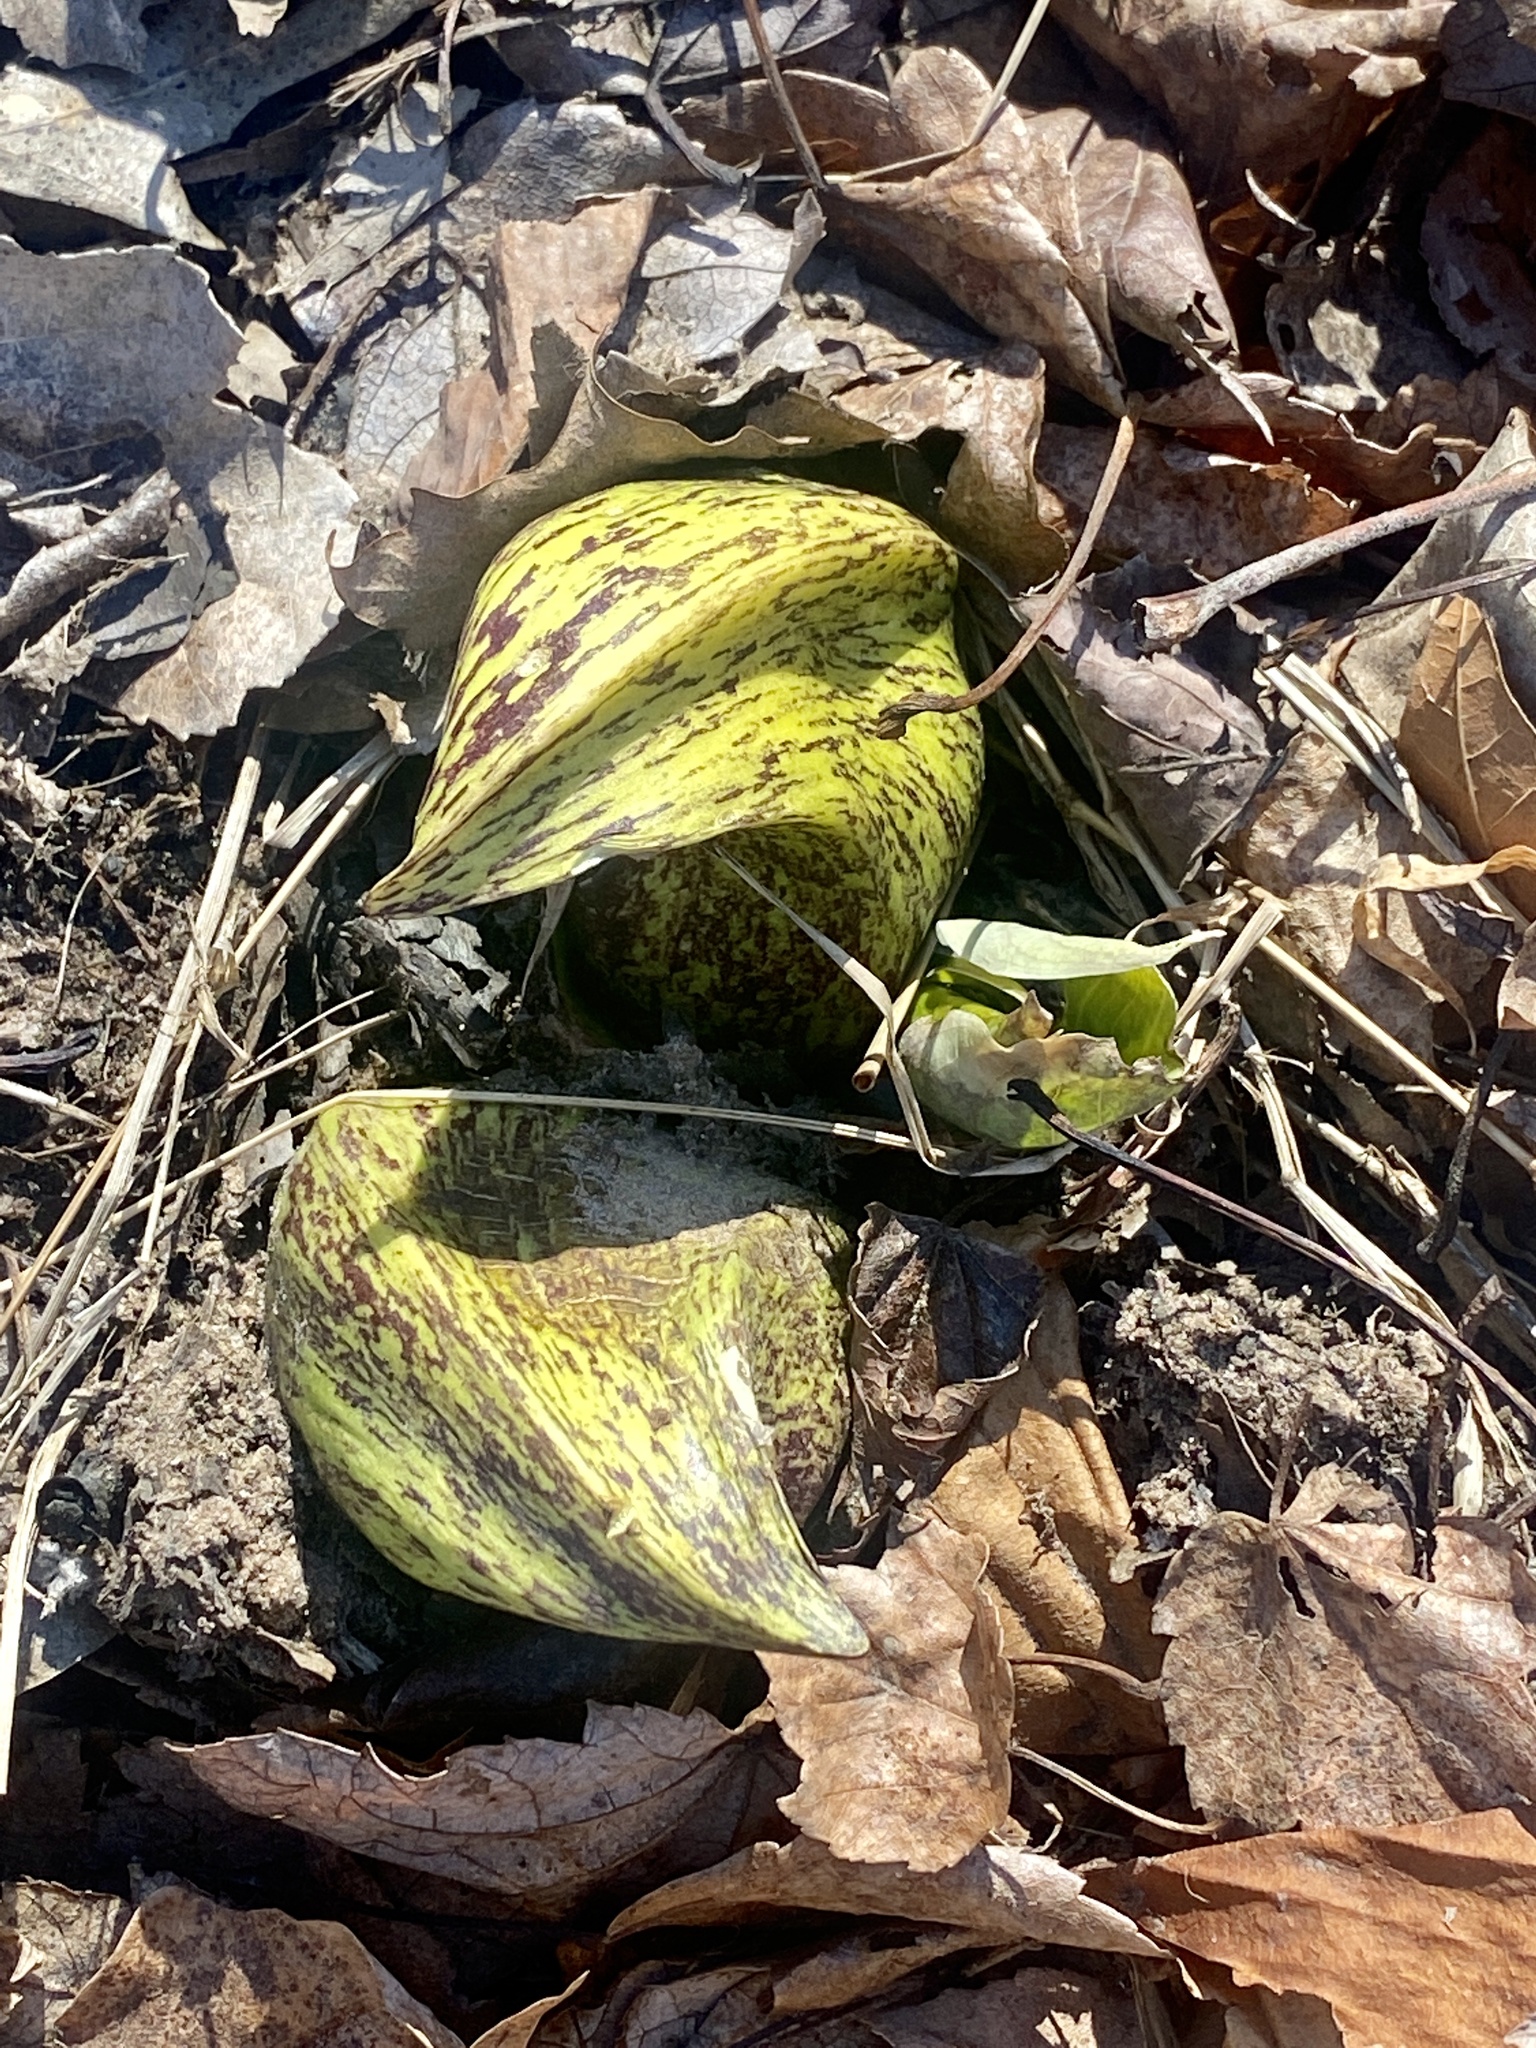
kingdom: Plantae
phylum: Tracheophyta
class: Liliopsida
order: Alismatales
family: Araceae
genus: Symplocarpus
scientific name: Symplocarpus foetidus
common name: Eastern skunk cabbage
